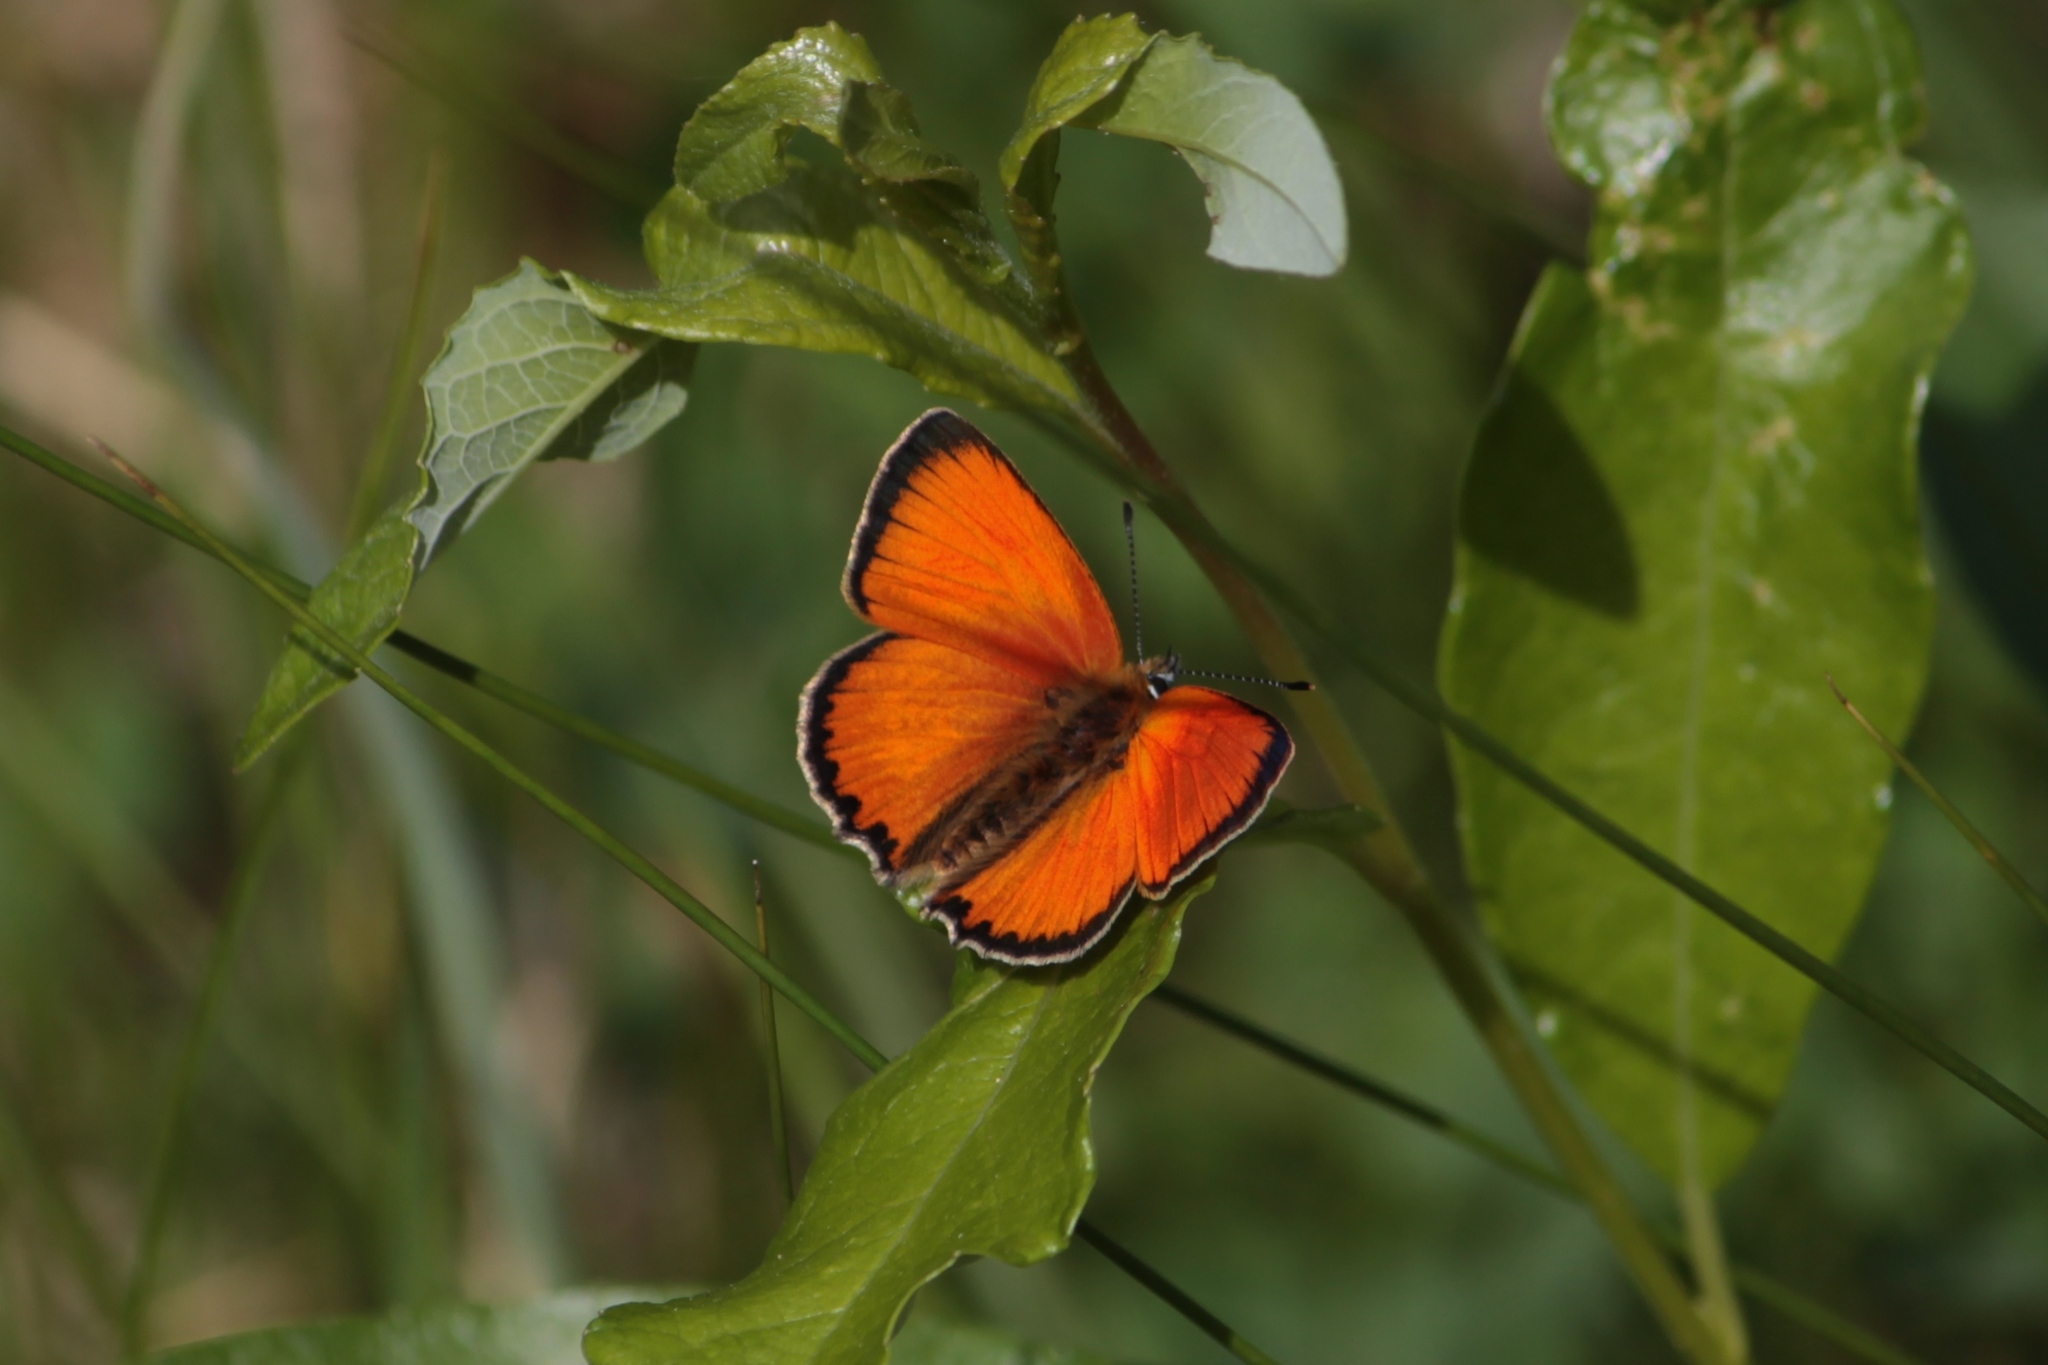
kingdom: Animalia
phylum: Arthropoda
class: Insecta
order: Lepidoptera
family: Lycaenidae
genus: Lycaena
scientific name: Lycaena virgaureae
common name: Scarce copper
